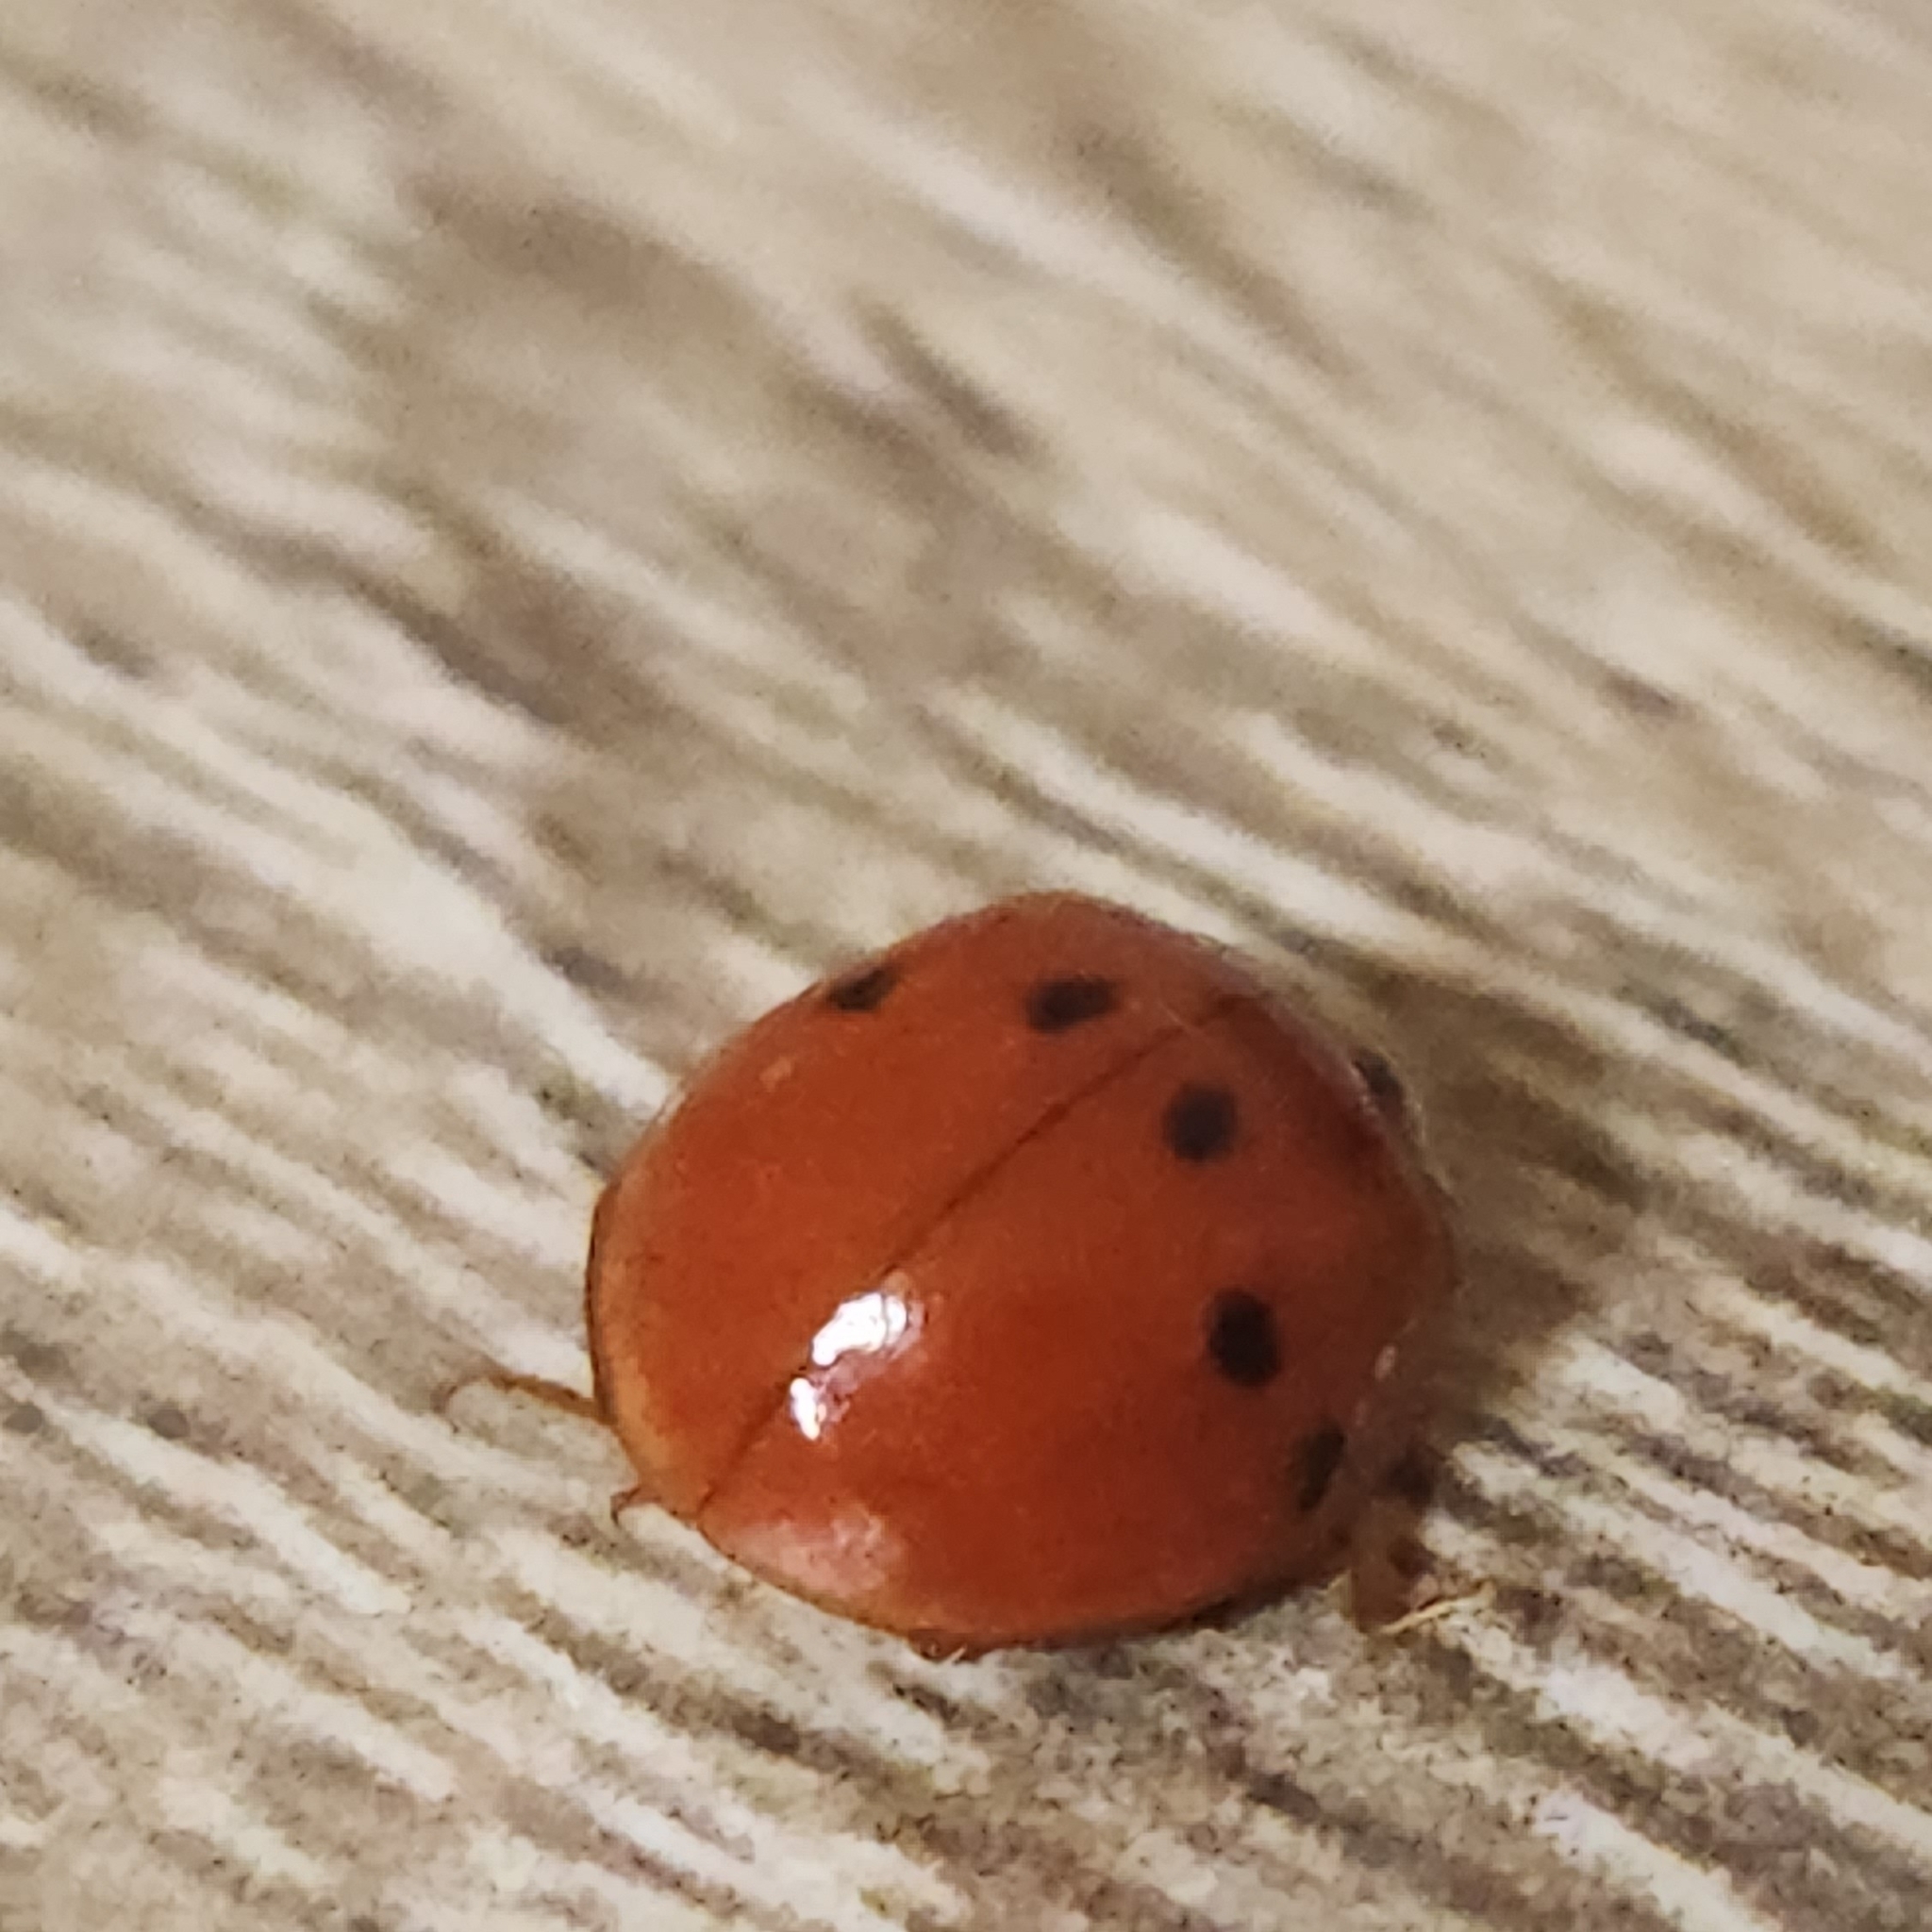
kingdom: Animalia
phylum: Arthropoda
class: Insecta
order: Coleoptera
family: Coccinellidae
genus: Harmonia
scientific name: Harmonia axyridis
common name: Harlequin ladybird
